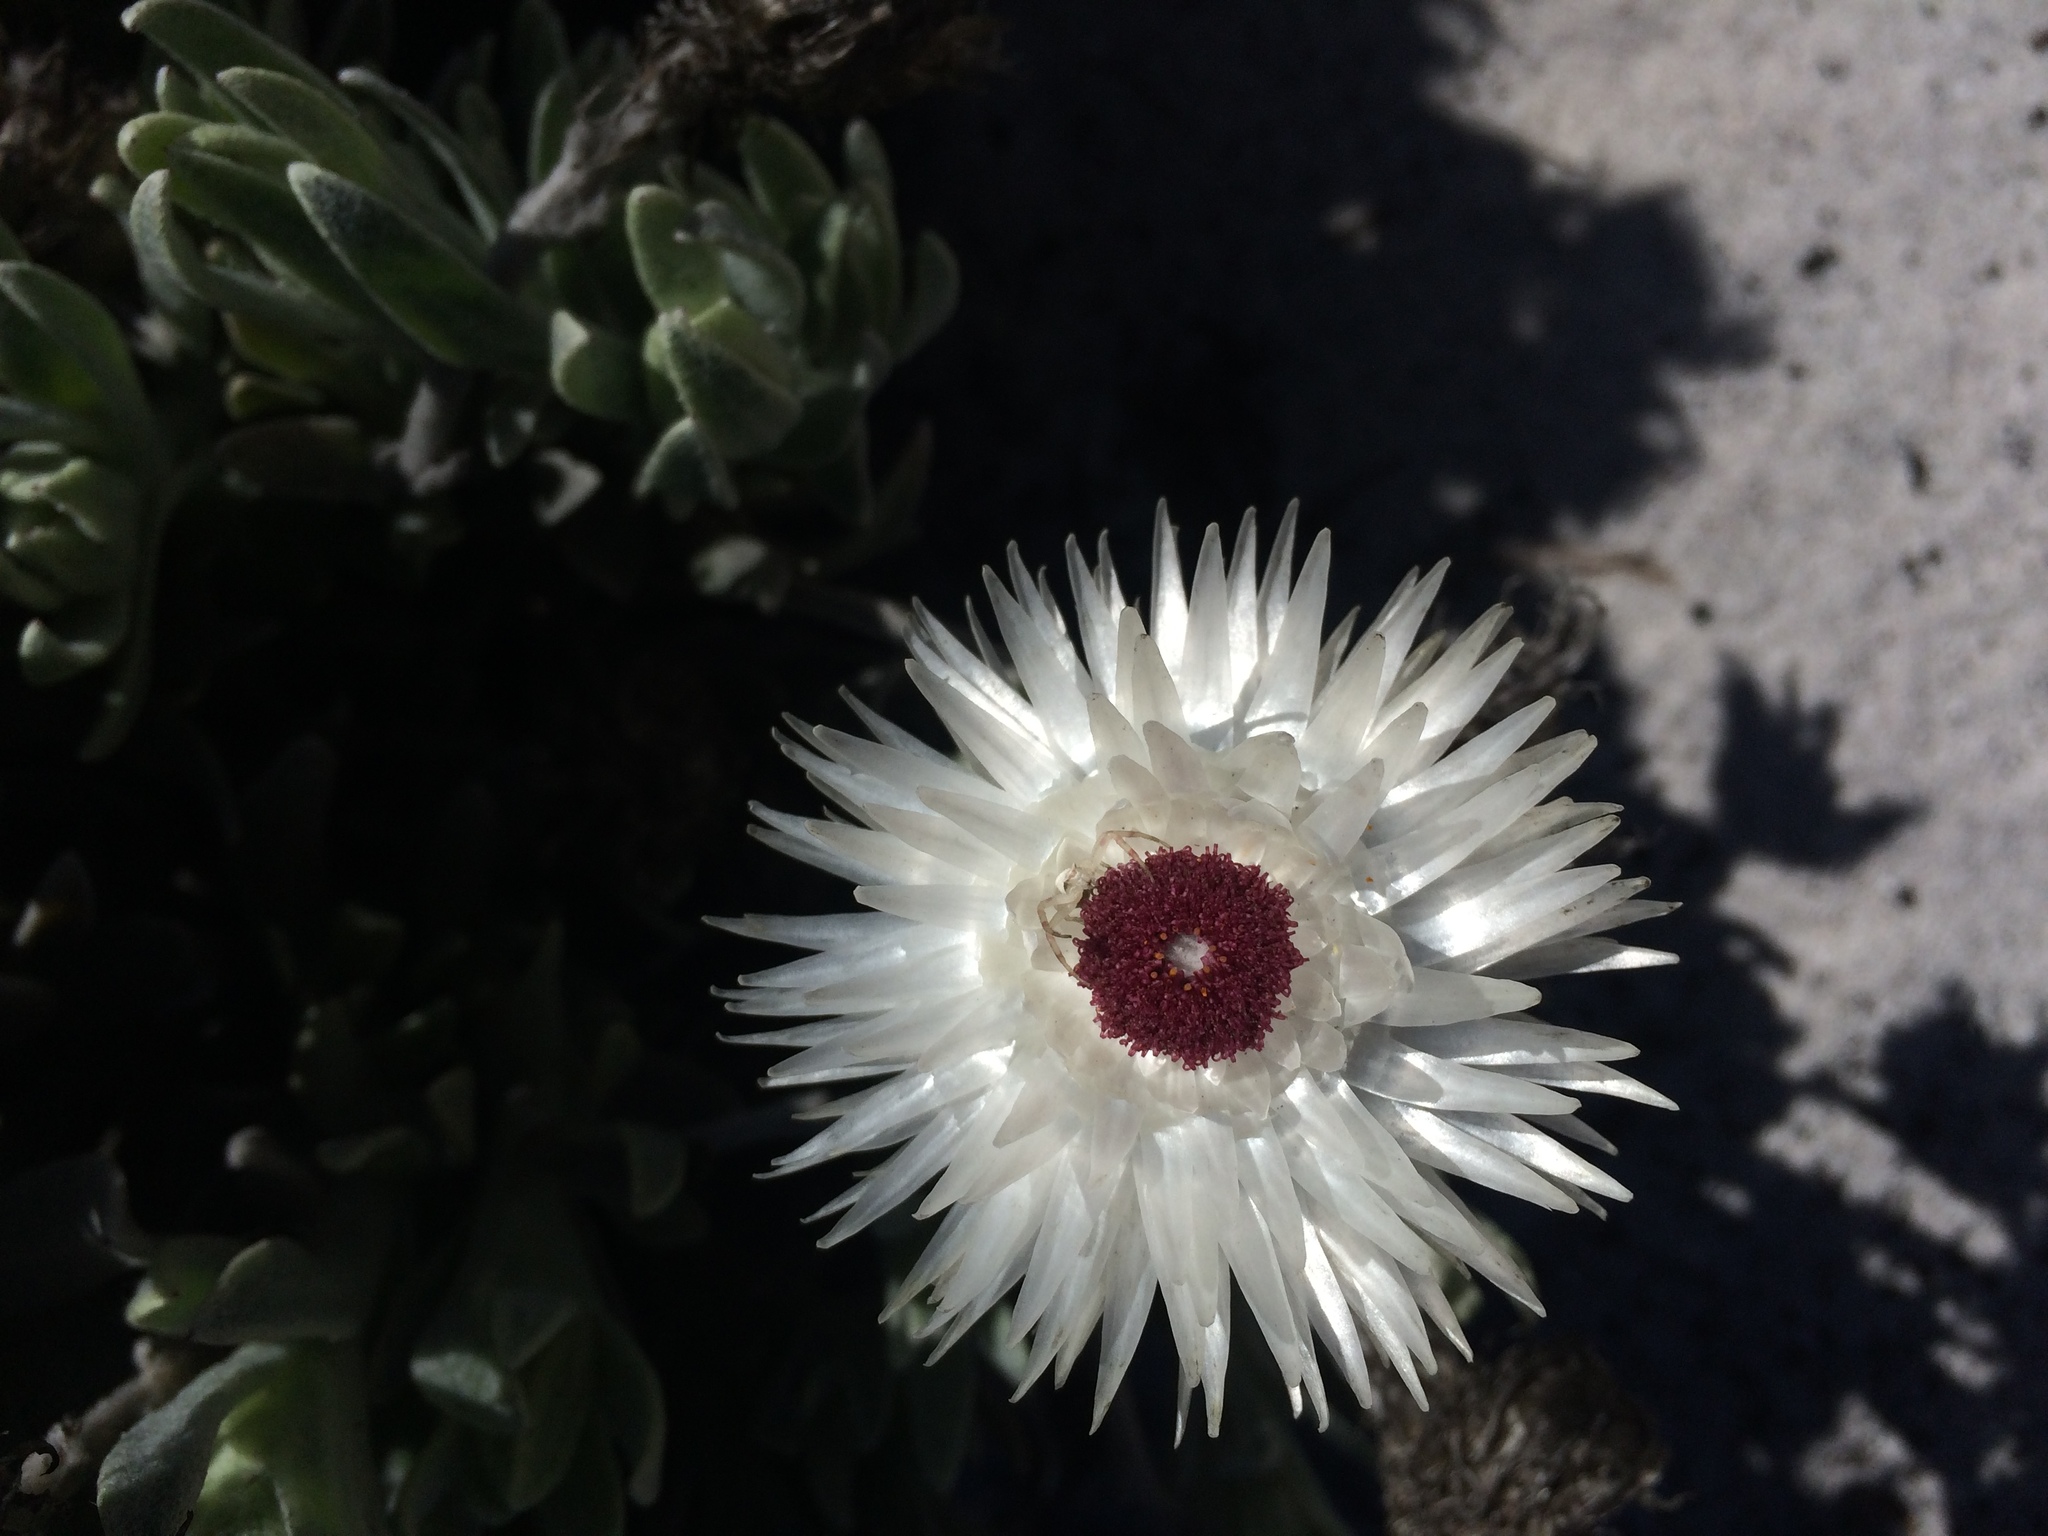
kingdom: Plantae
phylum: Tracheophyta
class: Magnoliopsida
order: Asterales
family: Asteraceae
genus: Syncarpha
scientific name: Syncarpha vestita
